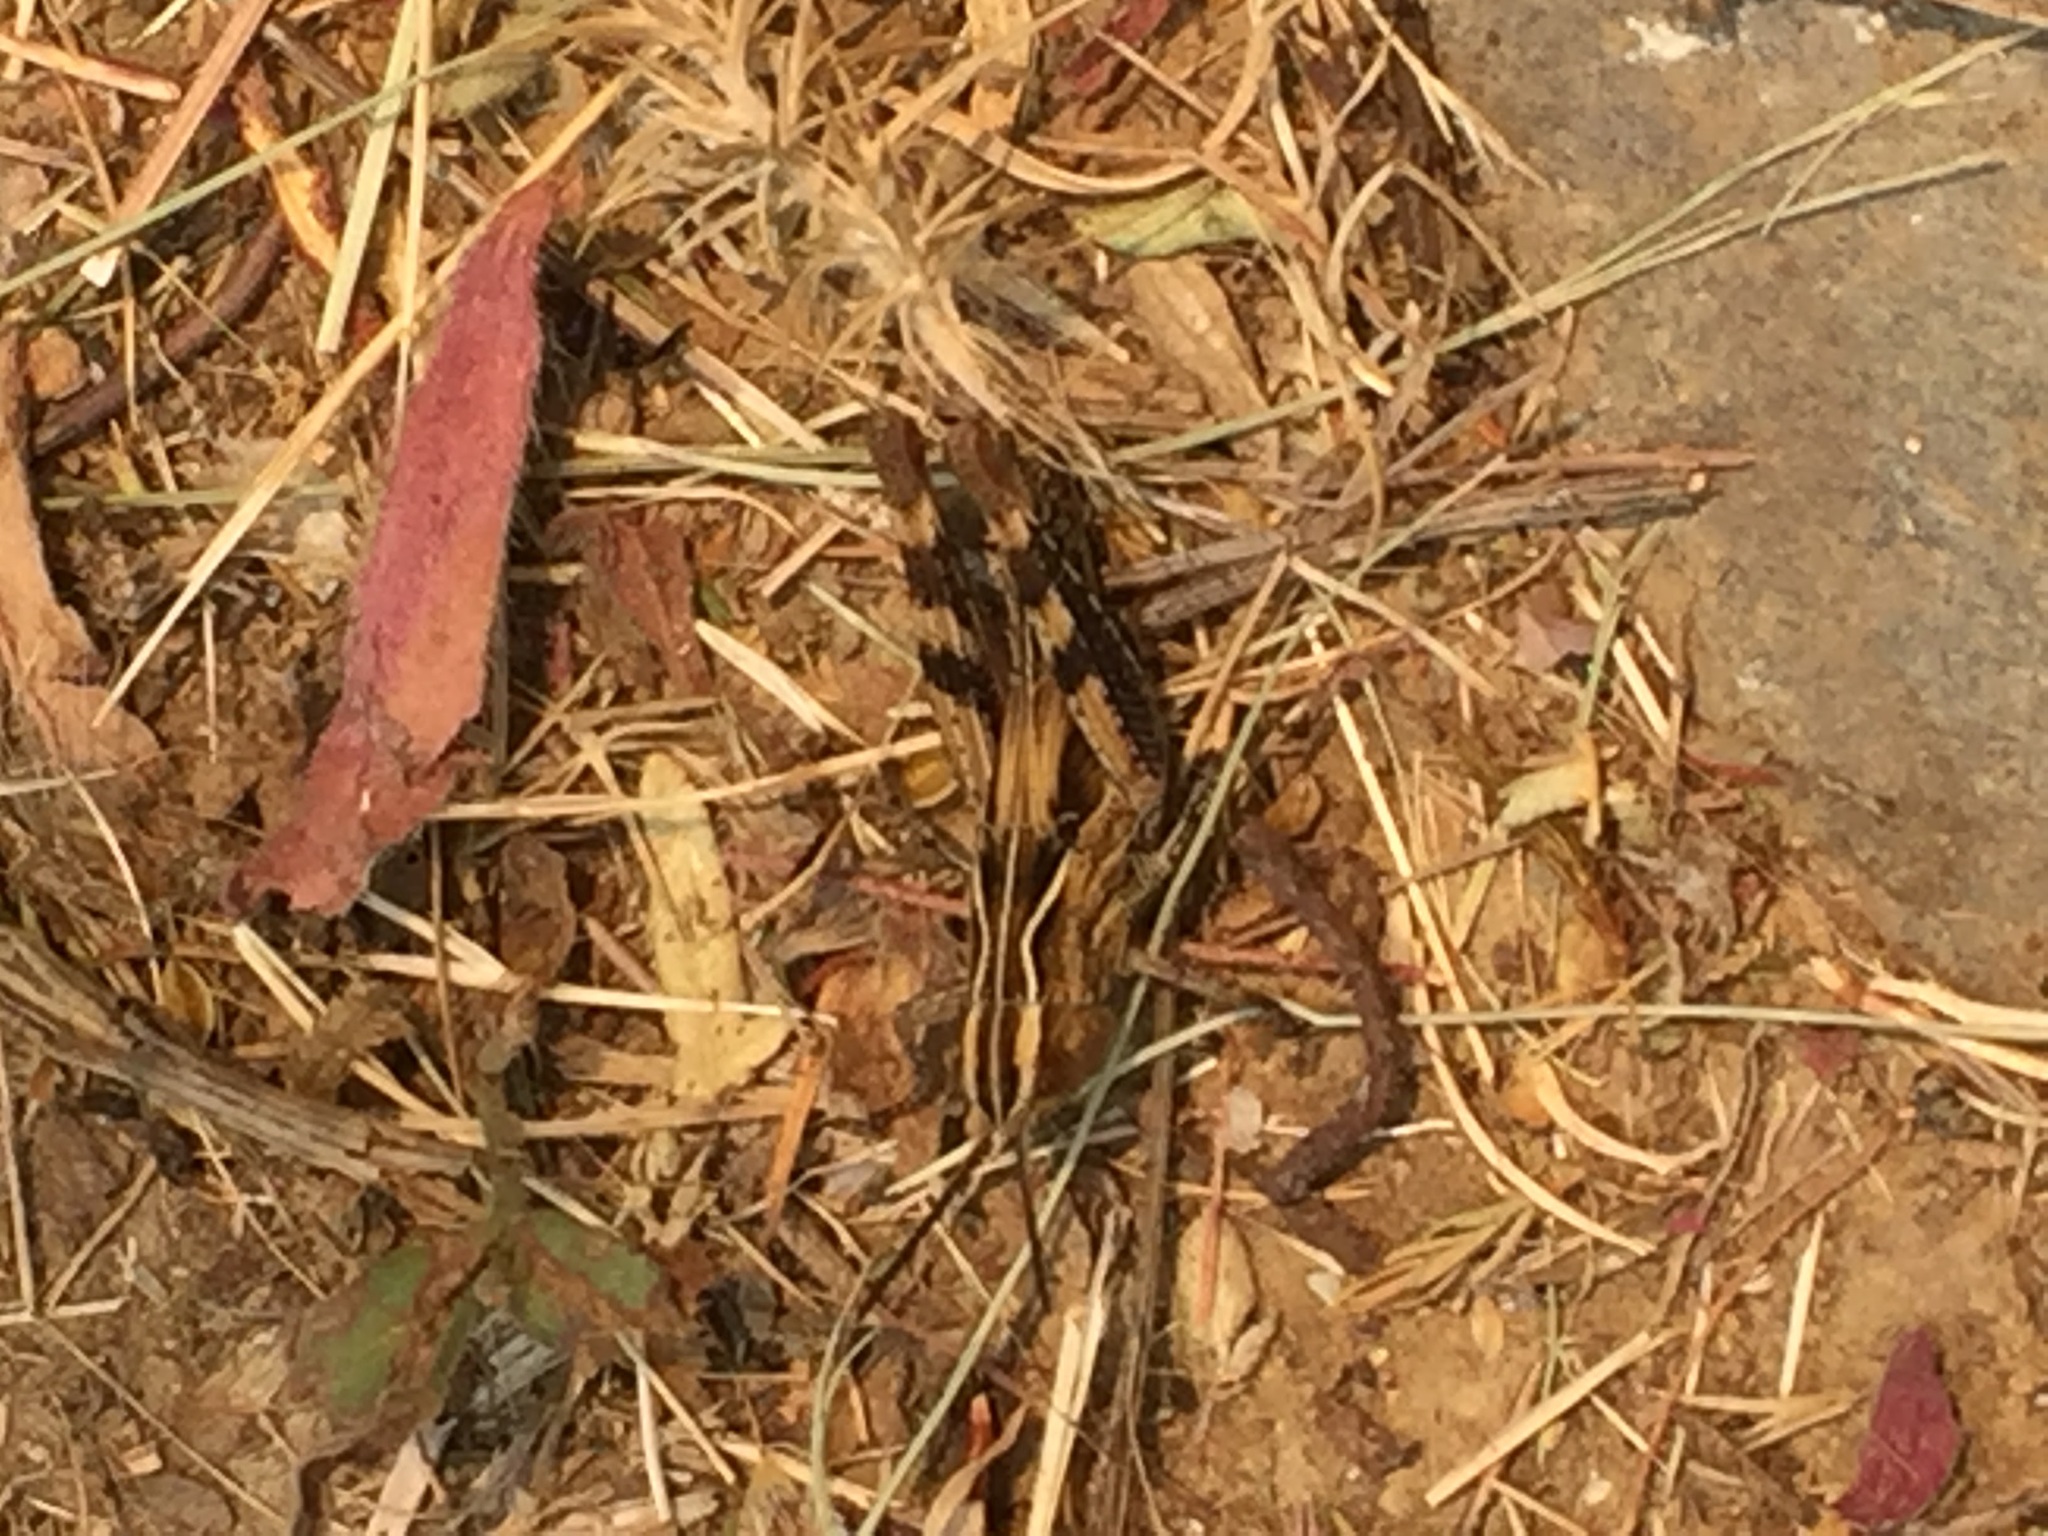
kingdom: Animalia
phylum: Arthropoda
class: Insecta
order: Orthoptera
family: Acrididae
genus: Chorthippus
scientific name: Chorthippus binotatus
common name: Two-marked grasshopper
